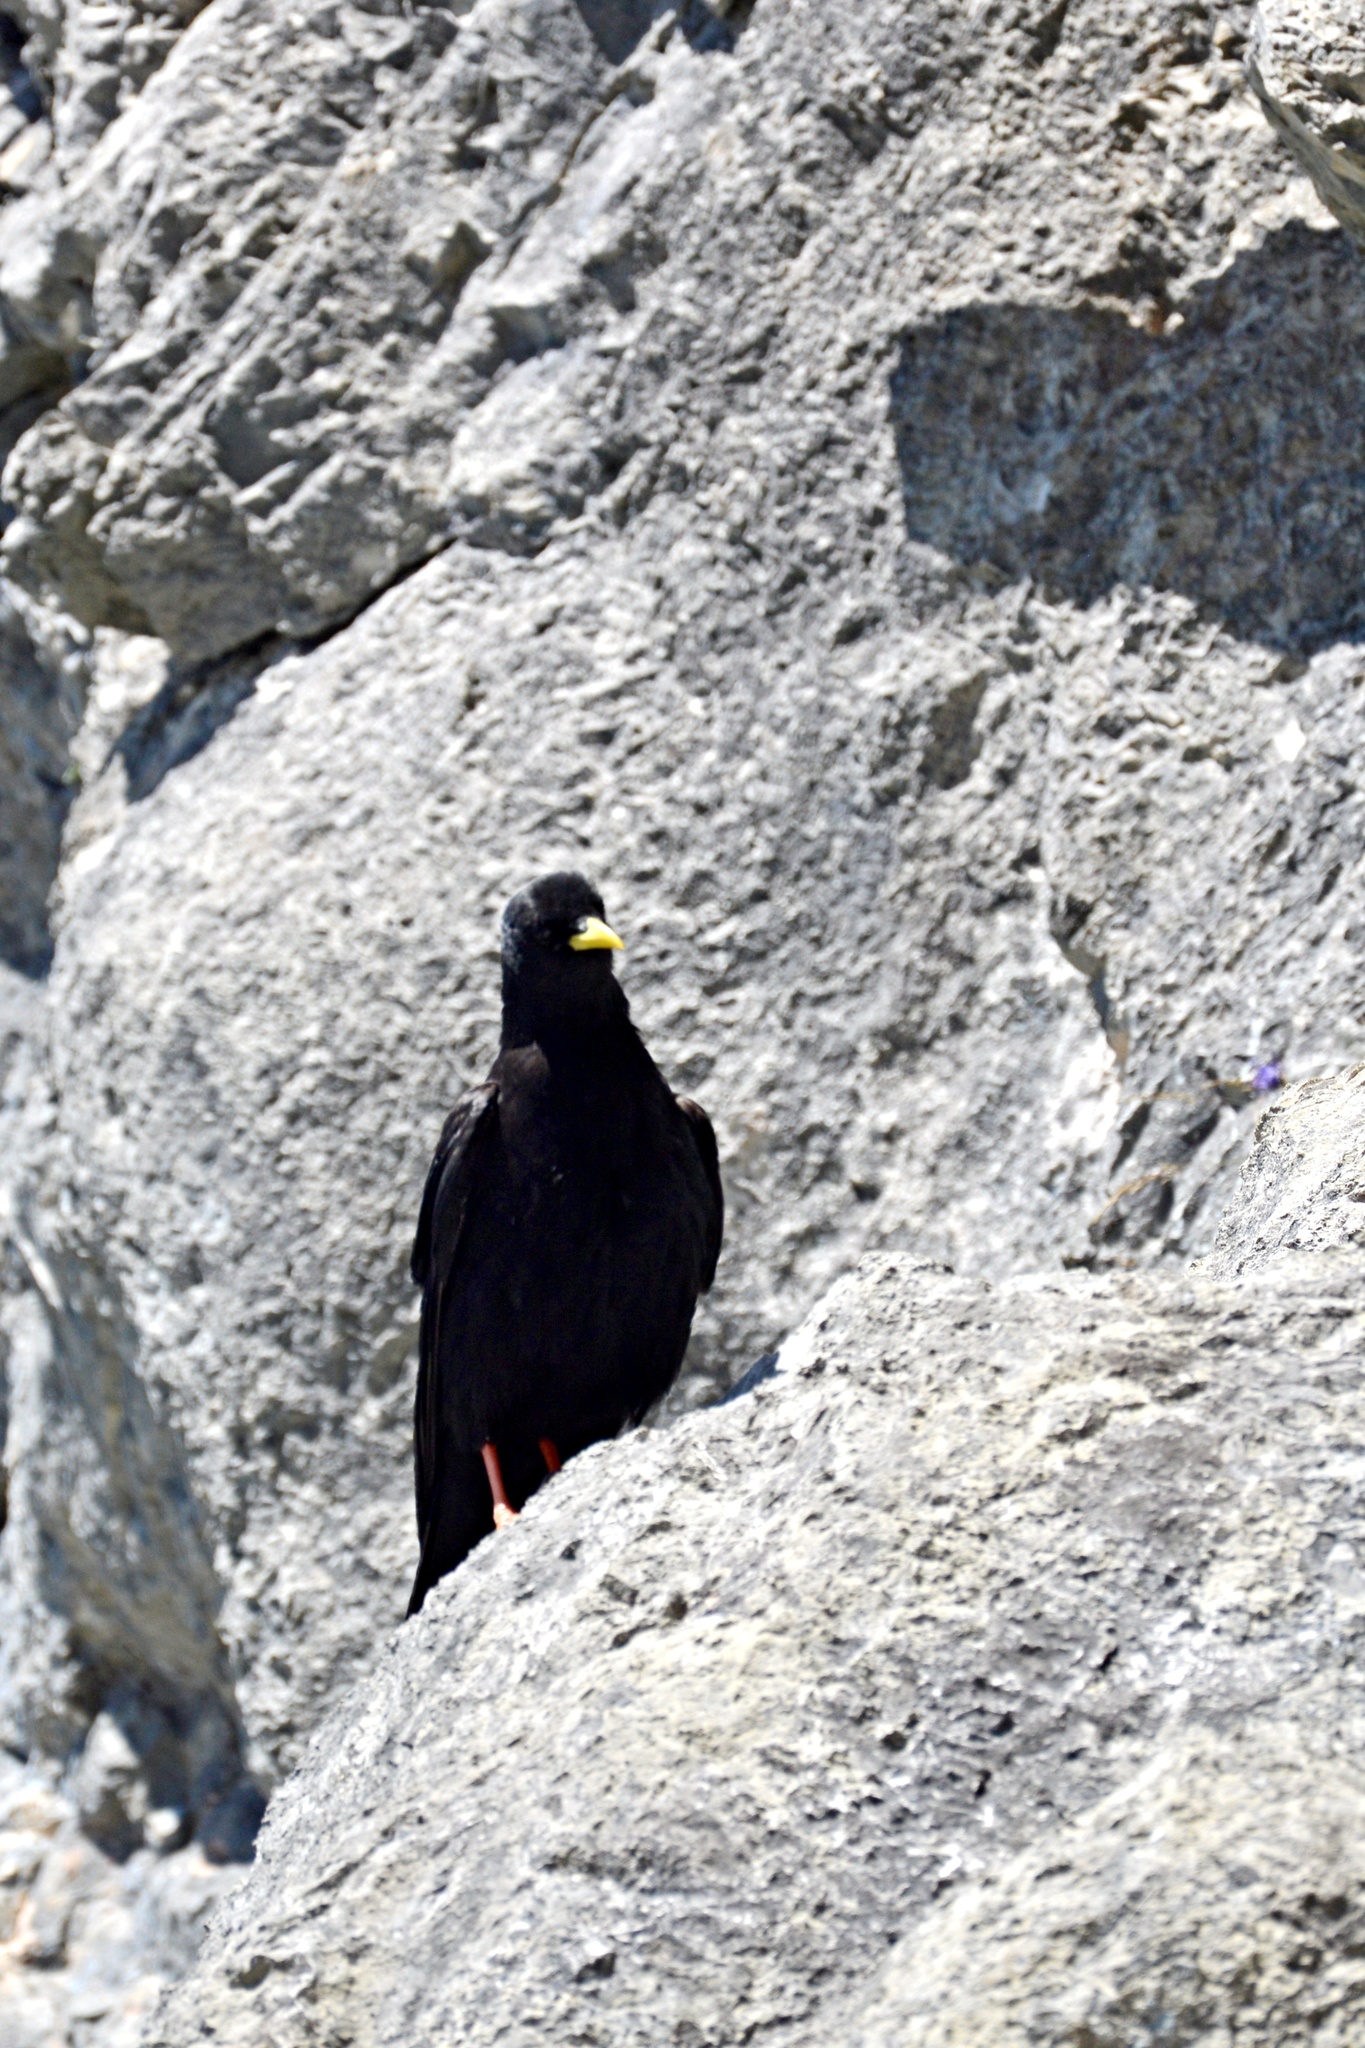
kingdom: Animalia
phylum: Chordata
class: Aves
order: Passeriformes
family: Corvidae
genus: Pyrrhocorax
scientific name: Pyrrhocorax graculus
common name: Alpine chough
